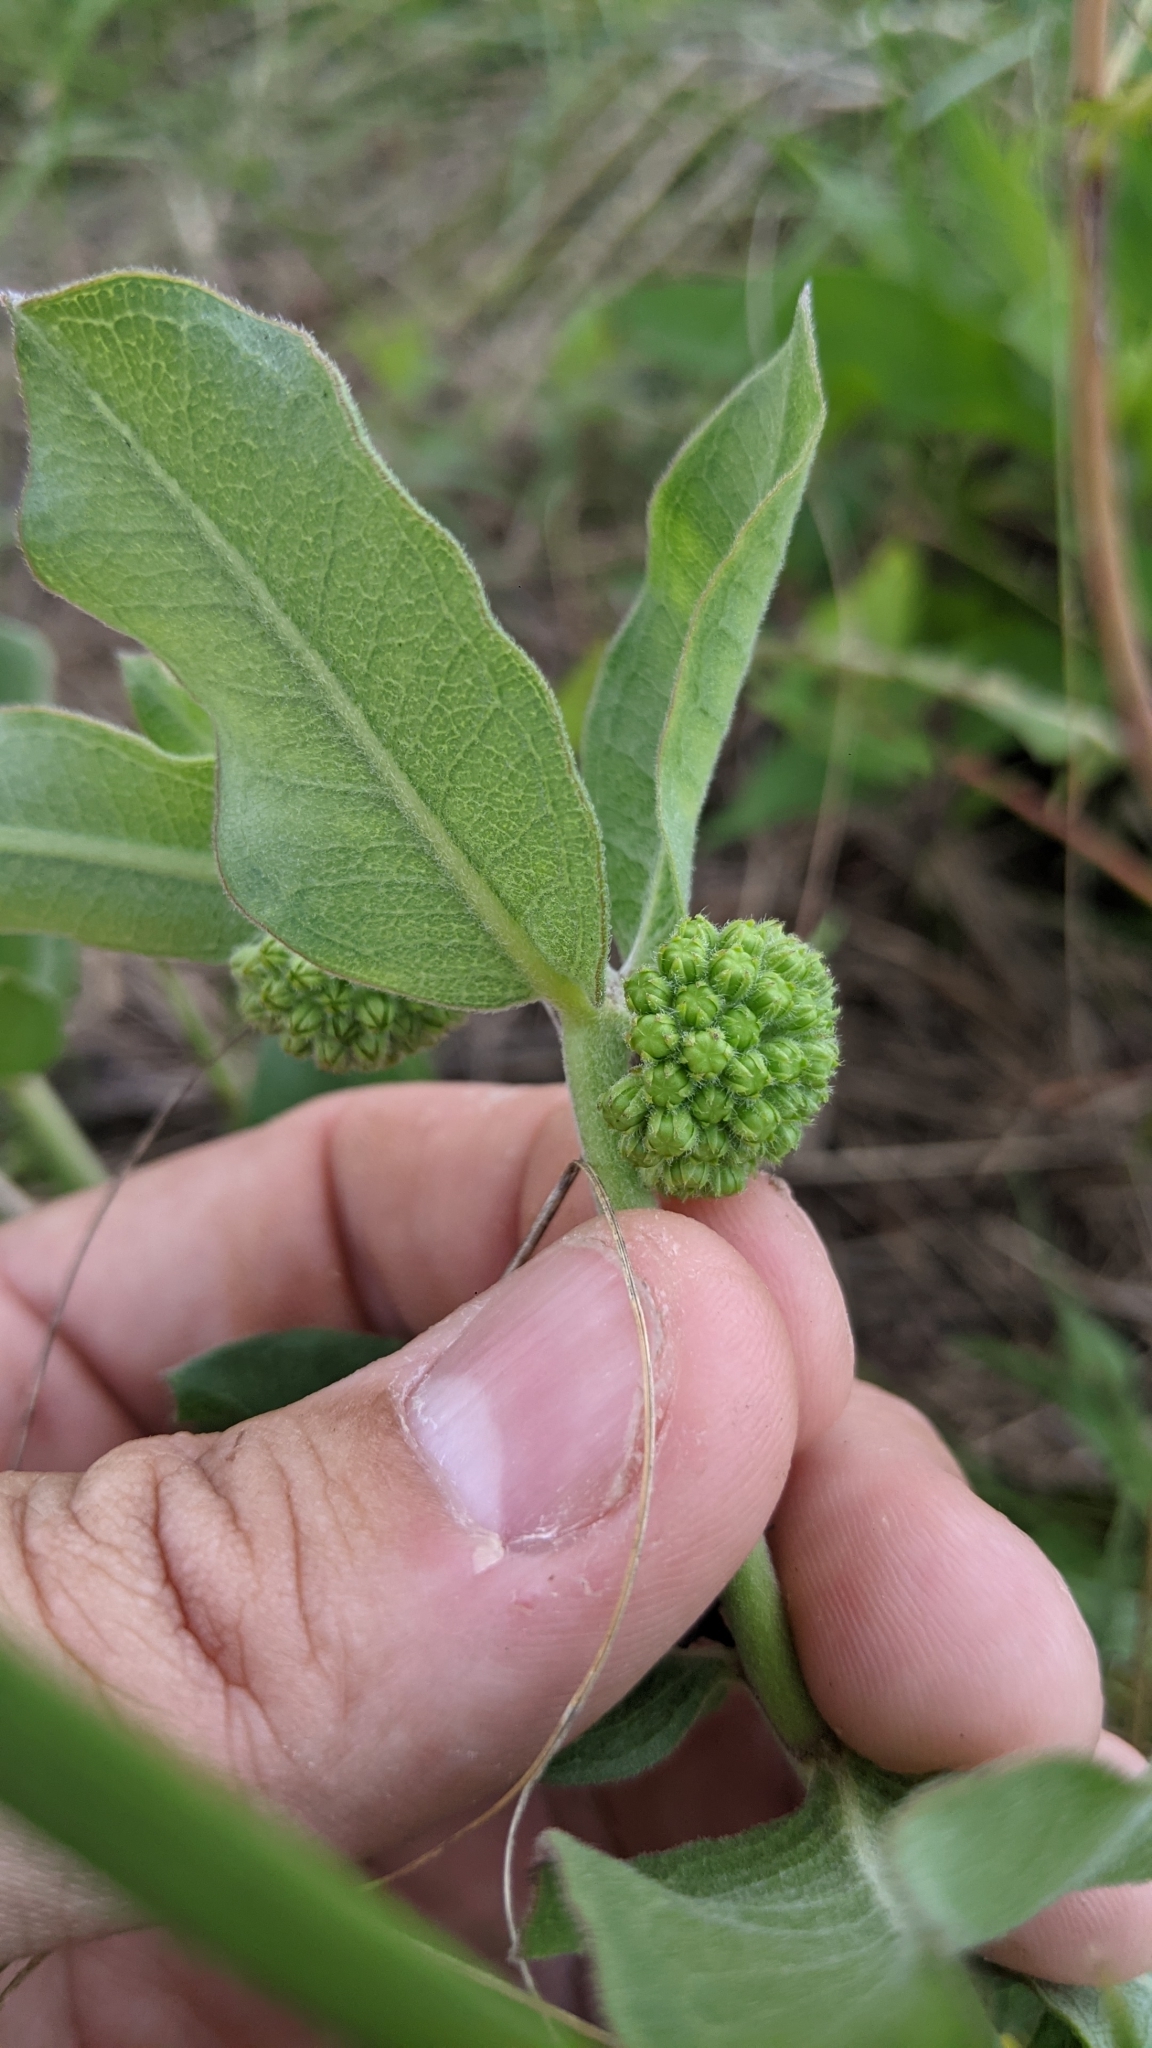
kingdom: Plantae
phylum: Tracheophyta
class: Magnoliopsida
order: Gentianales
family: Apocynaceae
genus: Asclepias
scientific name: Asclepias viridiflora
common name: Green comet milkweed
